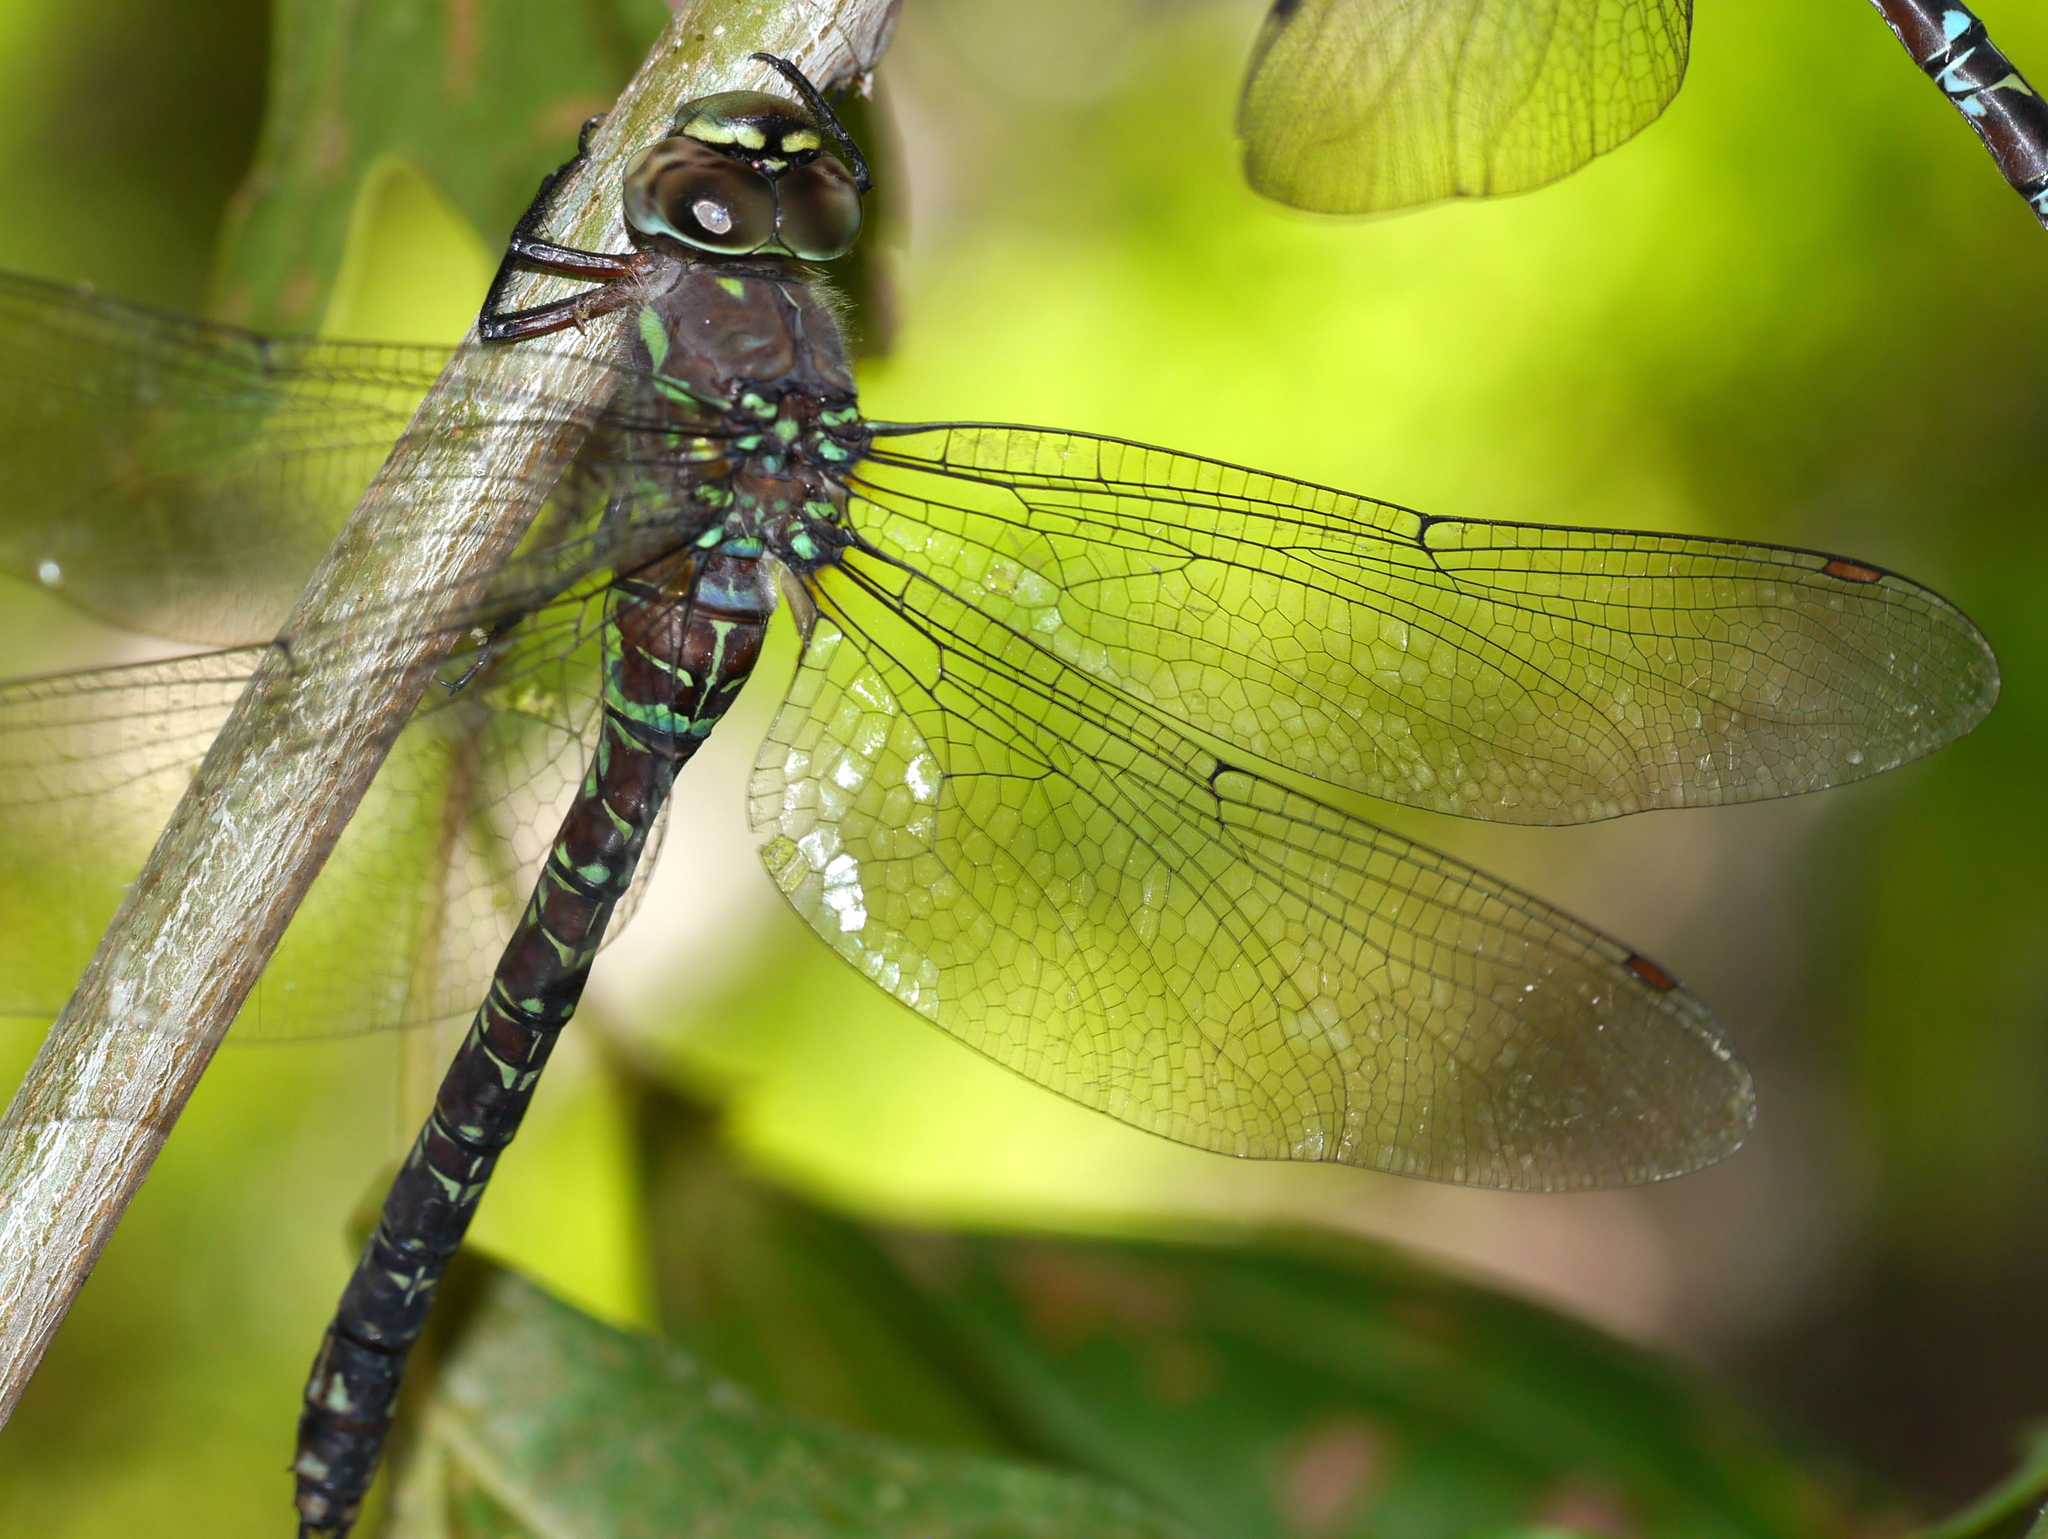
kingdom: Animalia
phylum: Arthropoda
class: Insecta
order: Odonata
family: Aeshnidae
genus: Oplonaeschna
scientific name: Oplonaeschna armata
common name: Riffle darner
